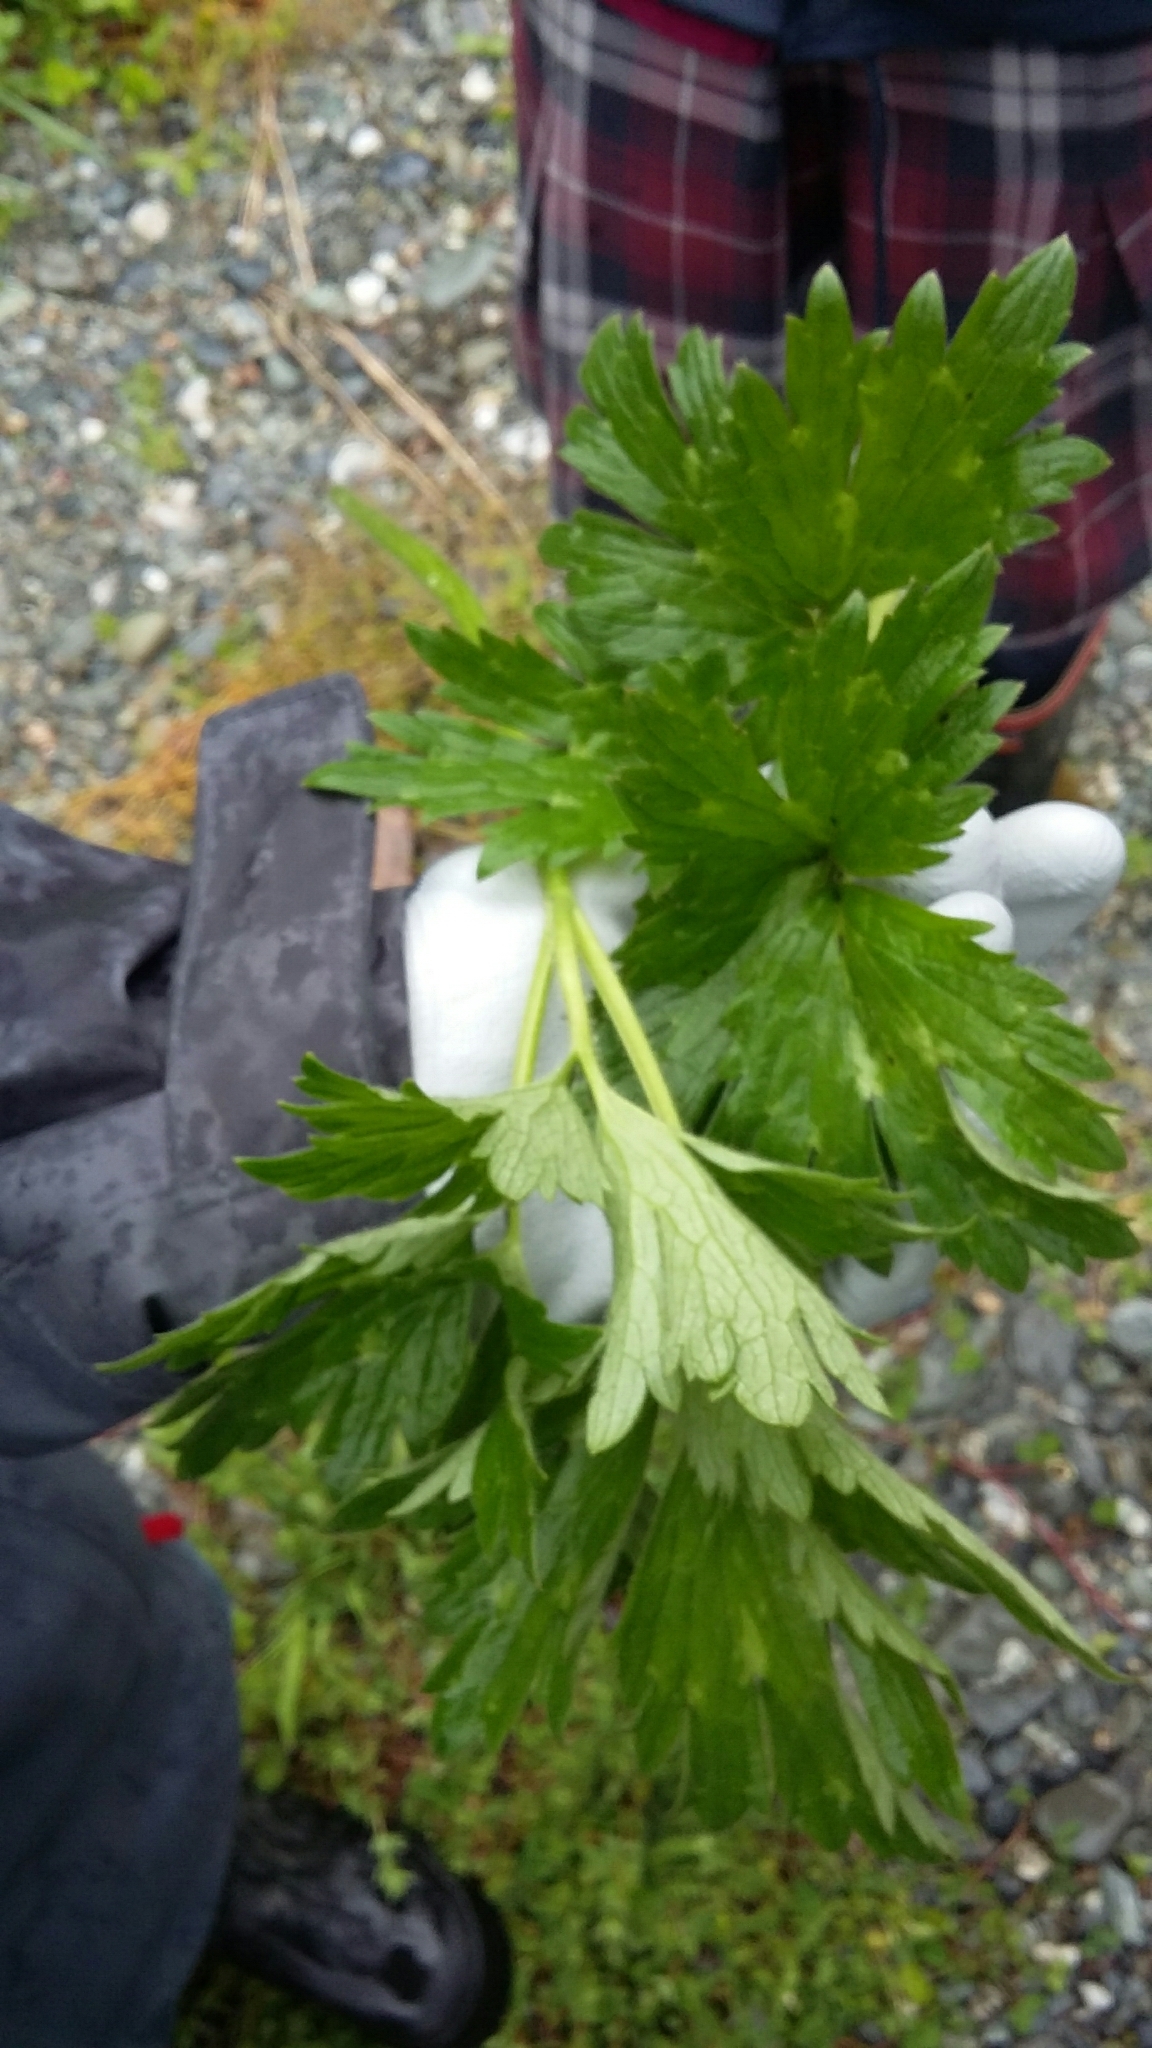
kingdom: Plantae
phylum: Tracheophyta
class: Magnoliopsida
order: Ranunculales
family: Ranunculaceae
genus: Ranunculus
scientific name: Ranunculus repens
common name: Creeping buttercup
